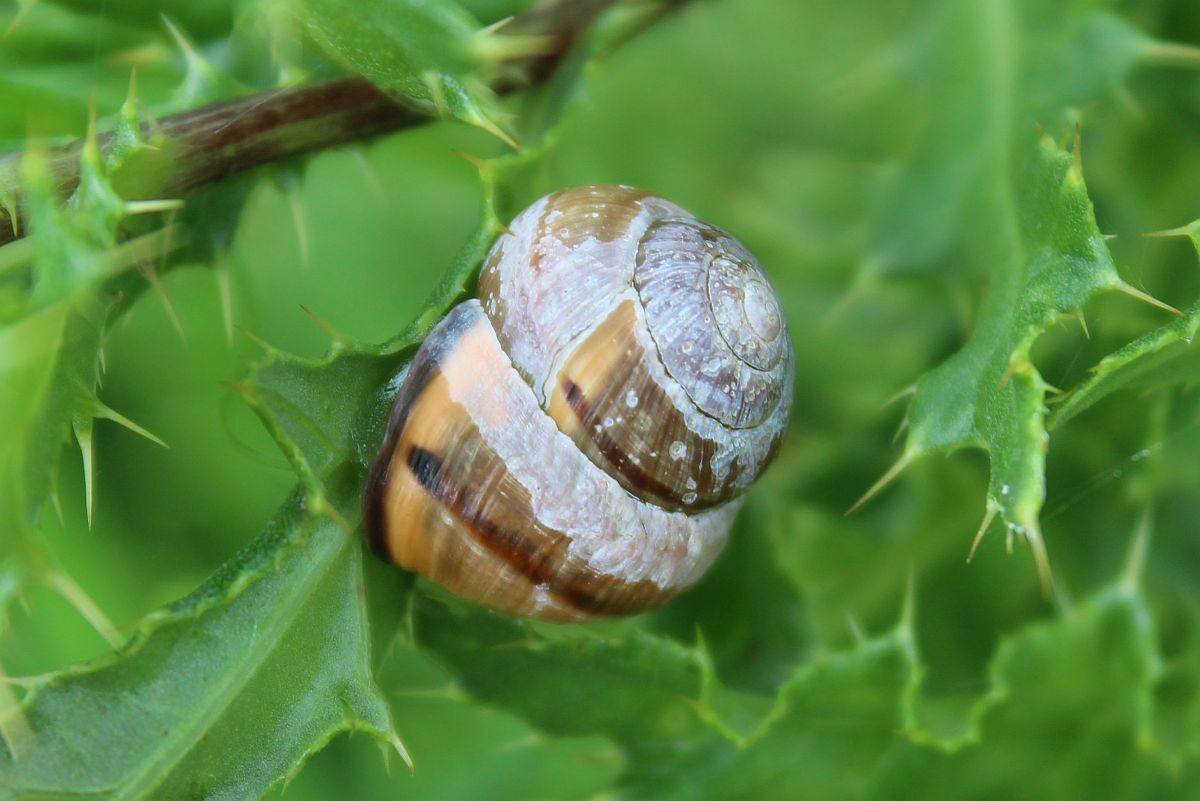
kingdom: Animalia
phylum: Mollusca
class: Gastropoda
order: Stylommatophora
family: Helicidae
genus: Cepaea
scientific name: Cepaea nemoralis
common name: Grovesnail
